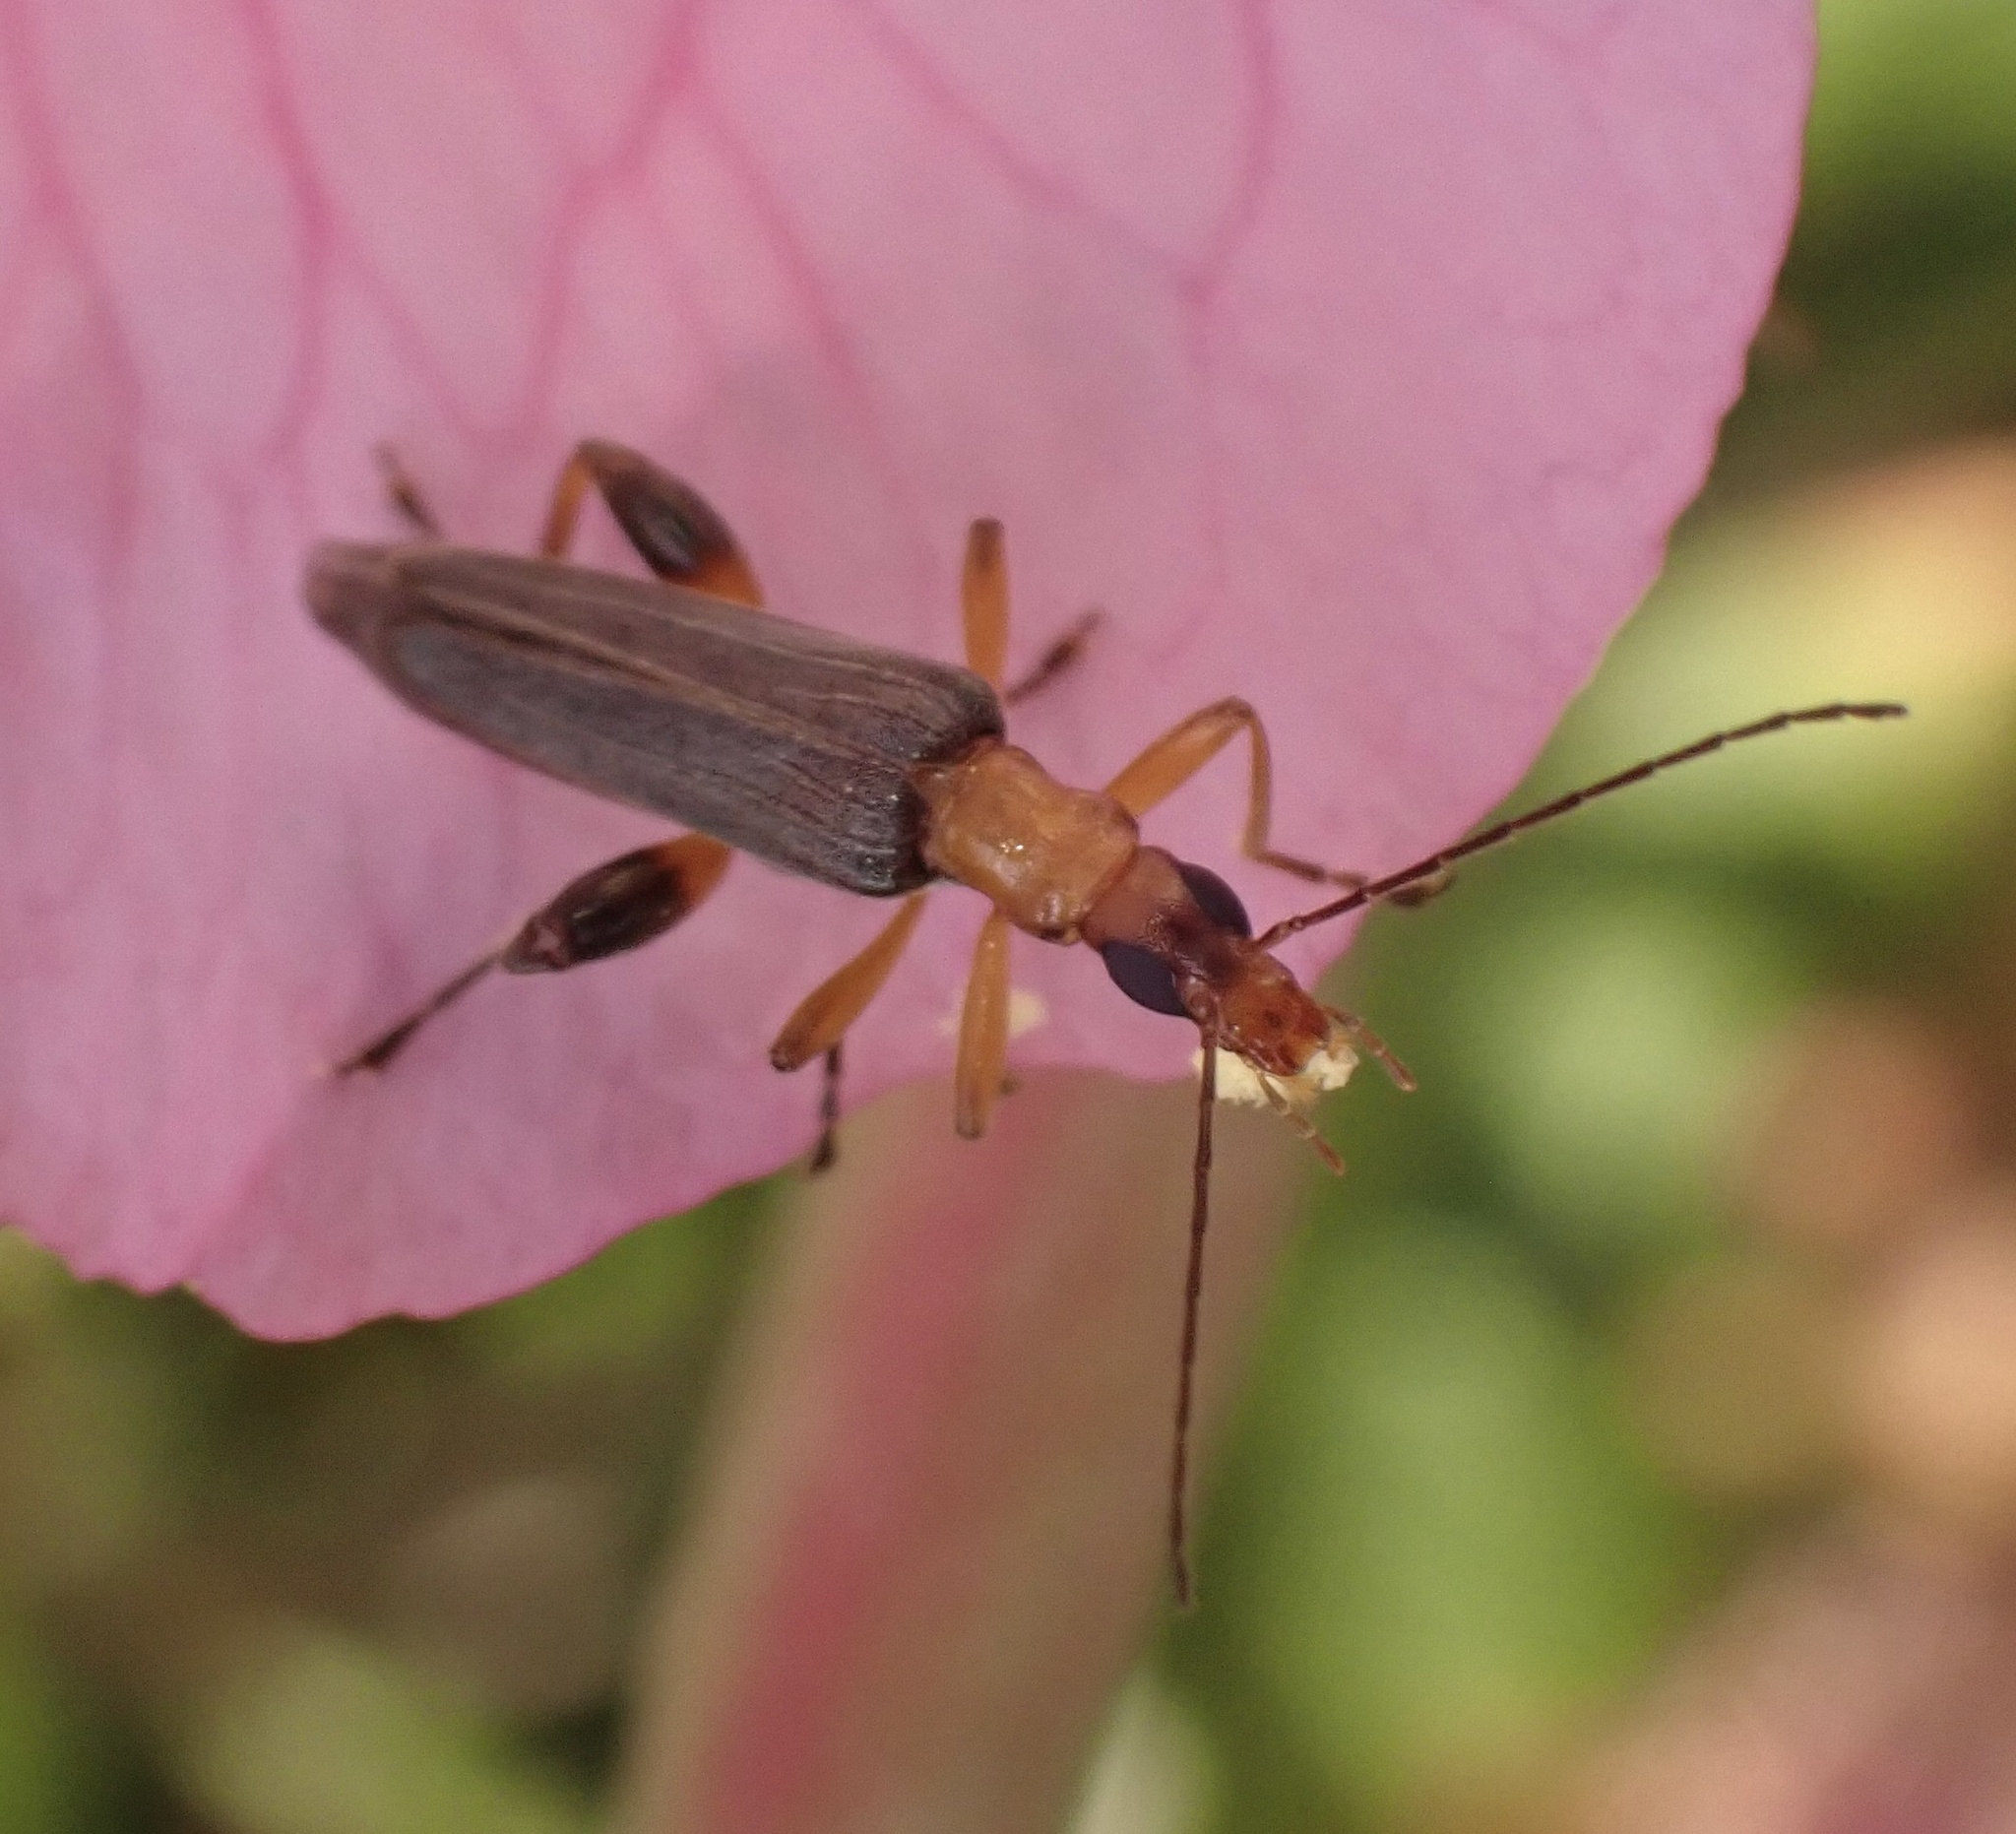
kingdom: Animalia
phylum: Arthropoda
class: Insecta
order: Coleoptera
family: Oedemeridae
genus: Oedemera
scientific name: Oedemera murinipennis
